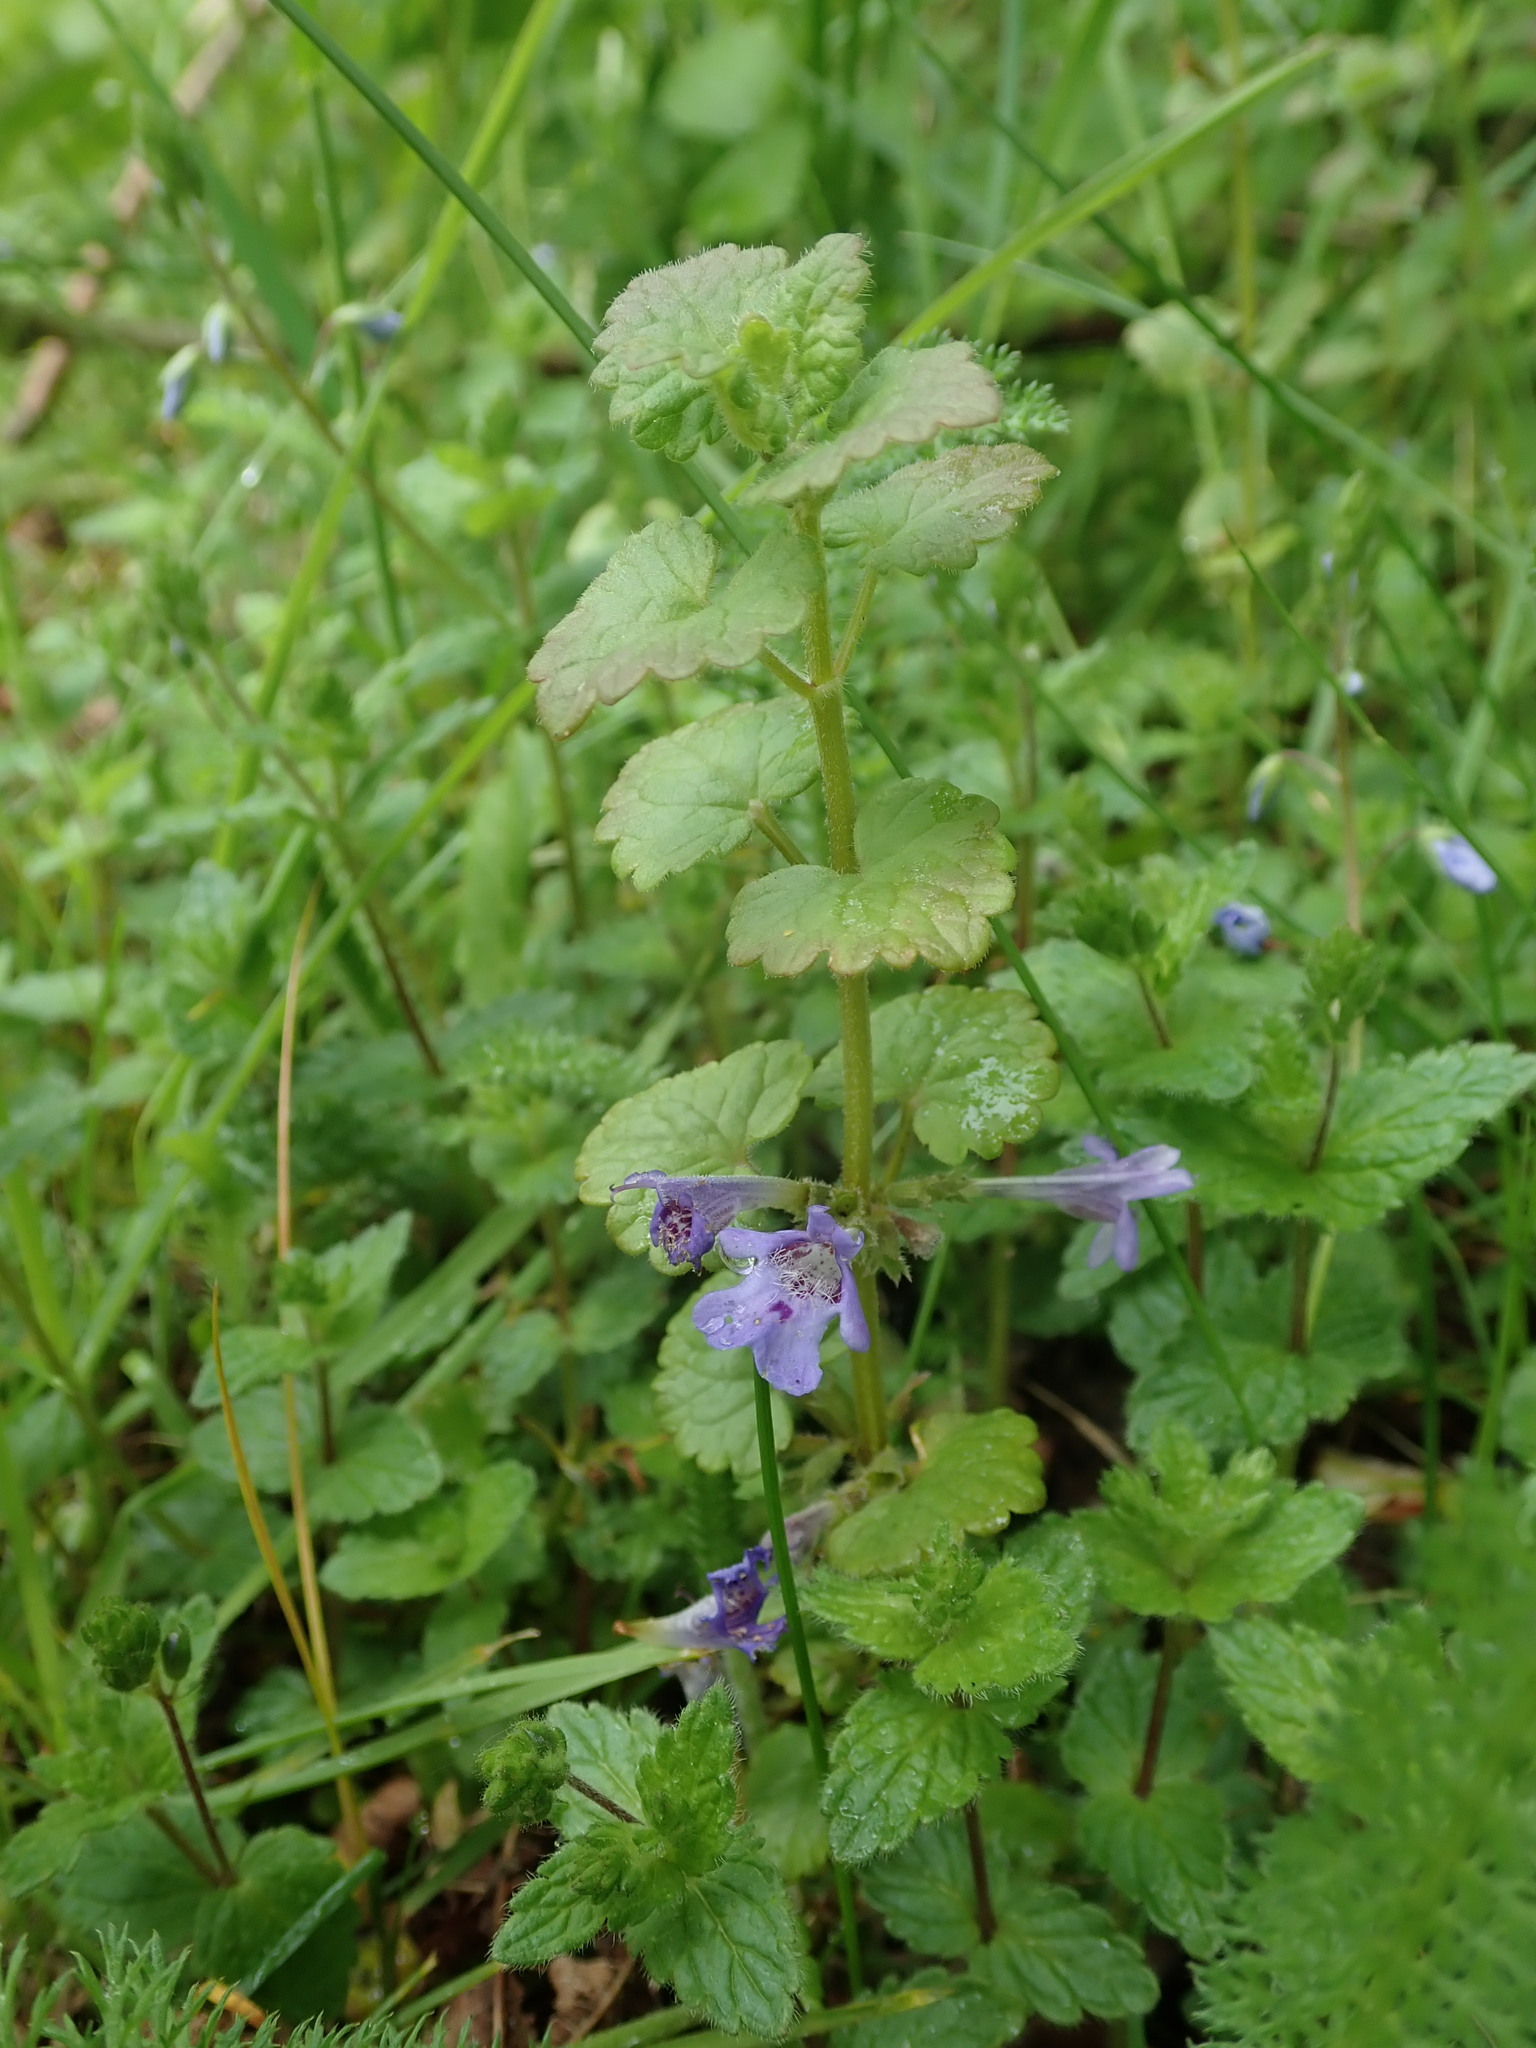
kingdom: Plantae
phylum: Tracheophyta
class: Magnoliopsida
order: Lamiales
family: Lamiaceae
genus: Glechoma
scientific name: Glechoma hederacea
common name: Ground ivy
